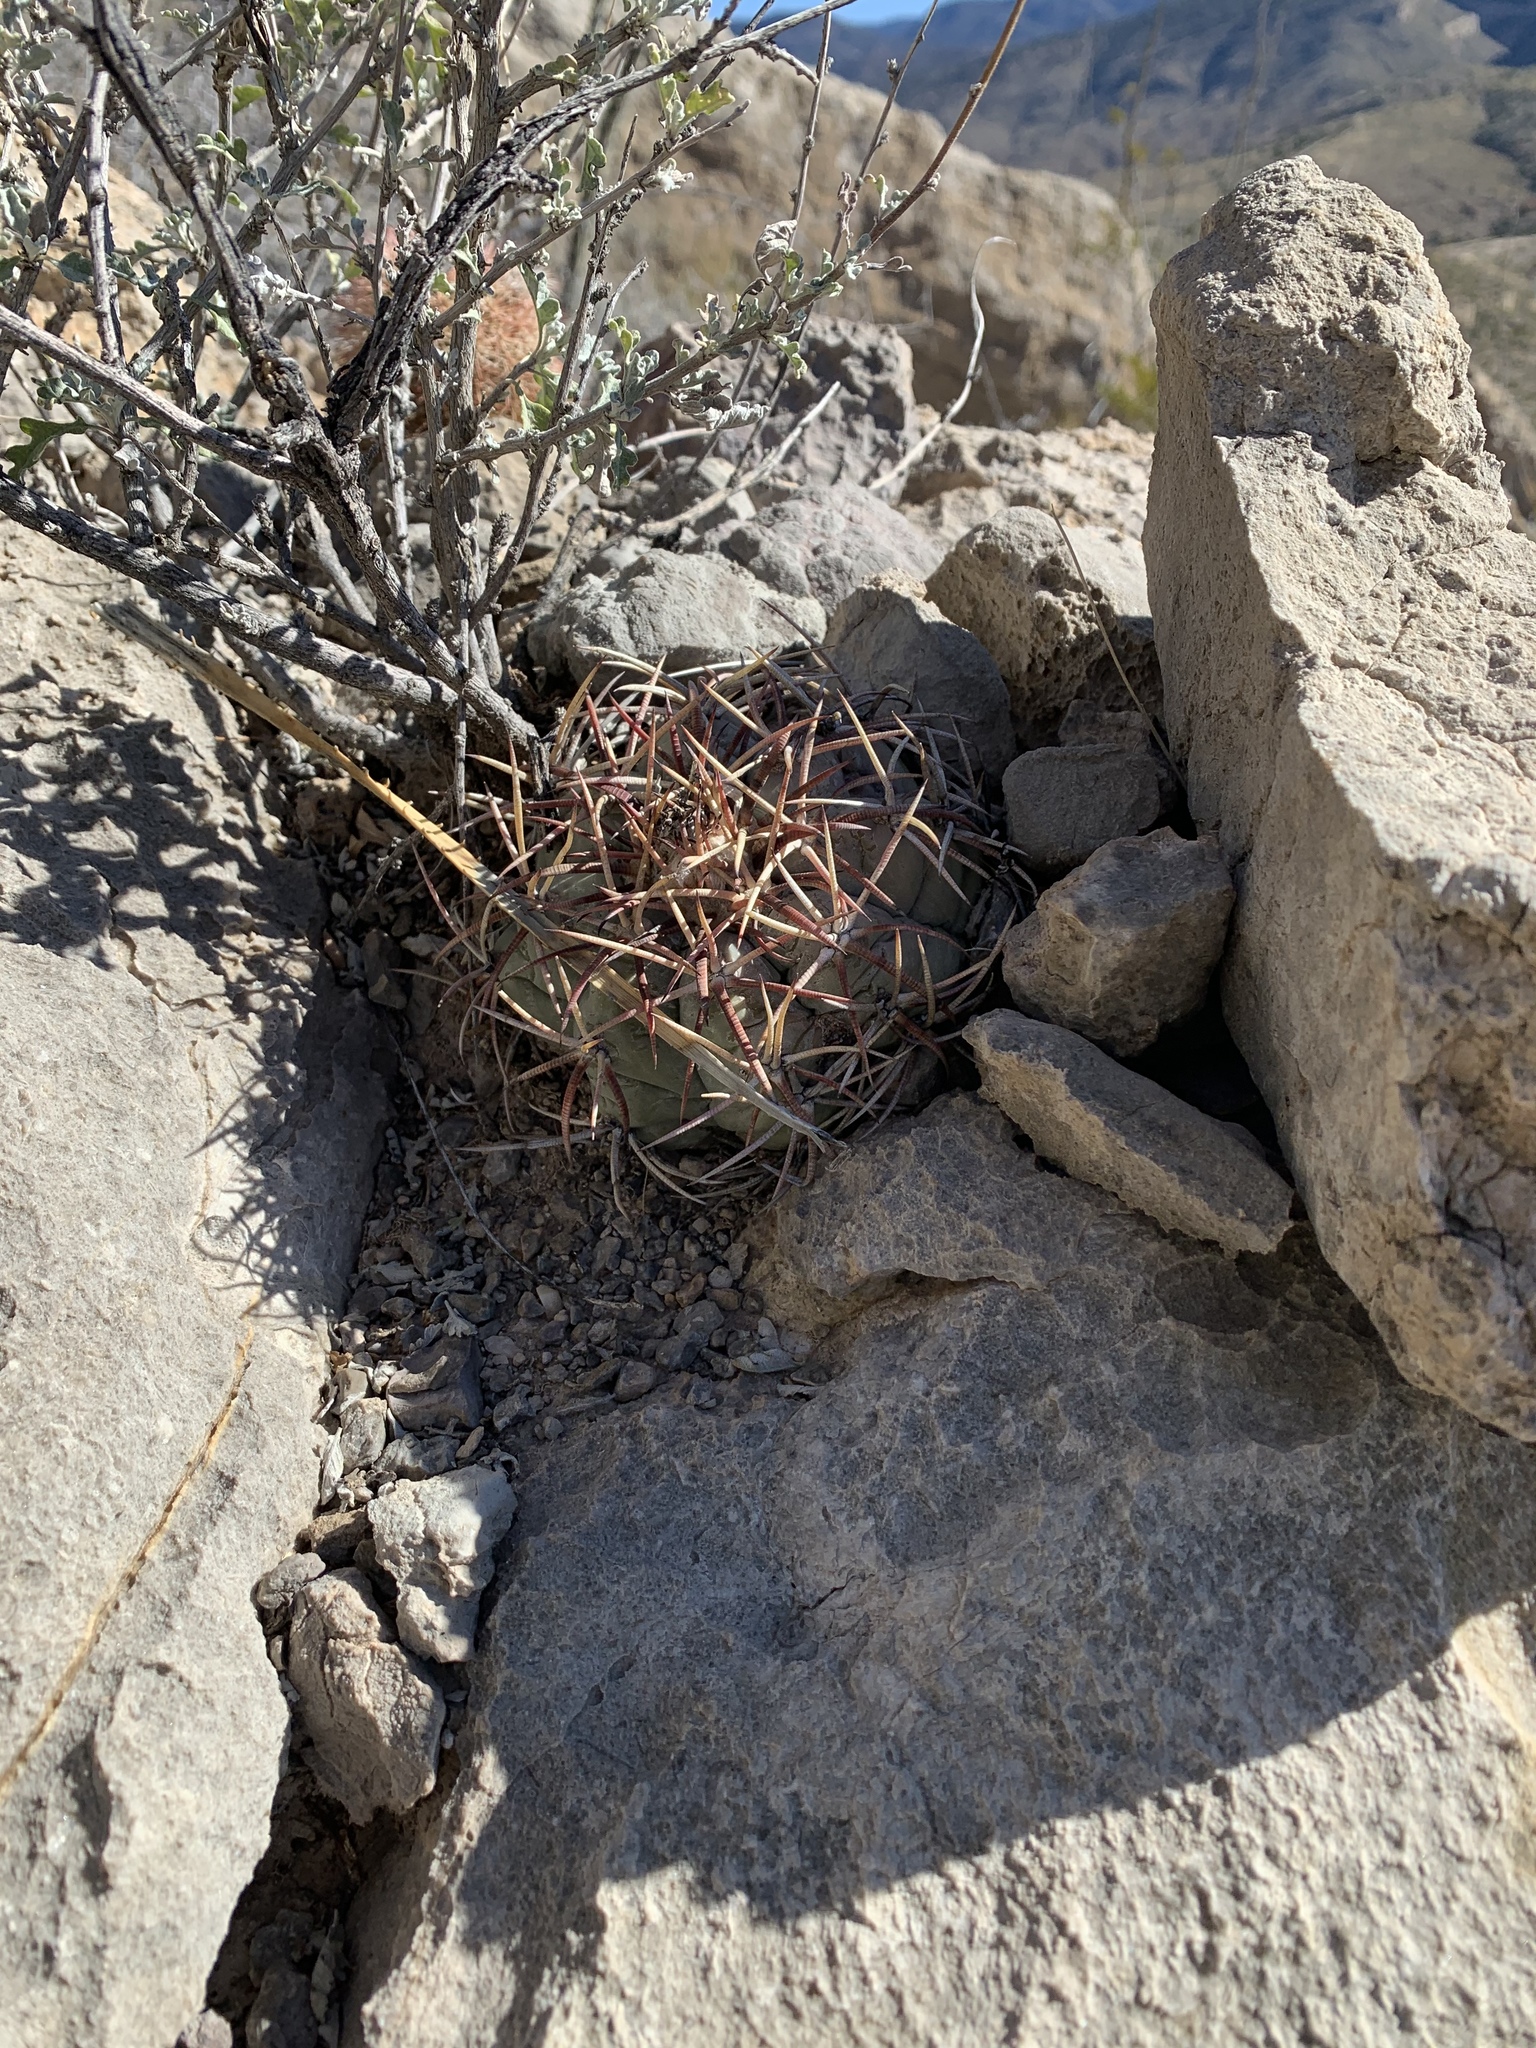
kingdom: Plantae
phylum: Tracheophyta
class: Magnoliopsida
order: Caryophyllales
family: Cactaceae
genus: Echinocactus
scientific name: Echinocactus horizonthalonius
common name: Devilshead
